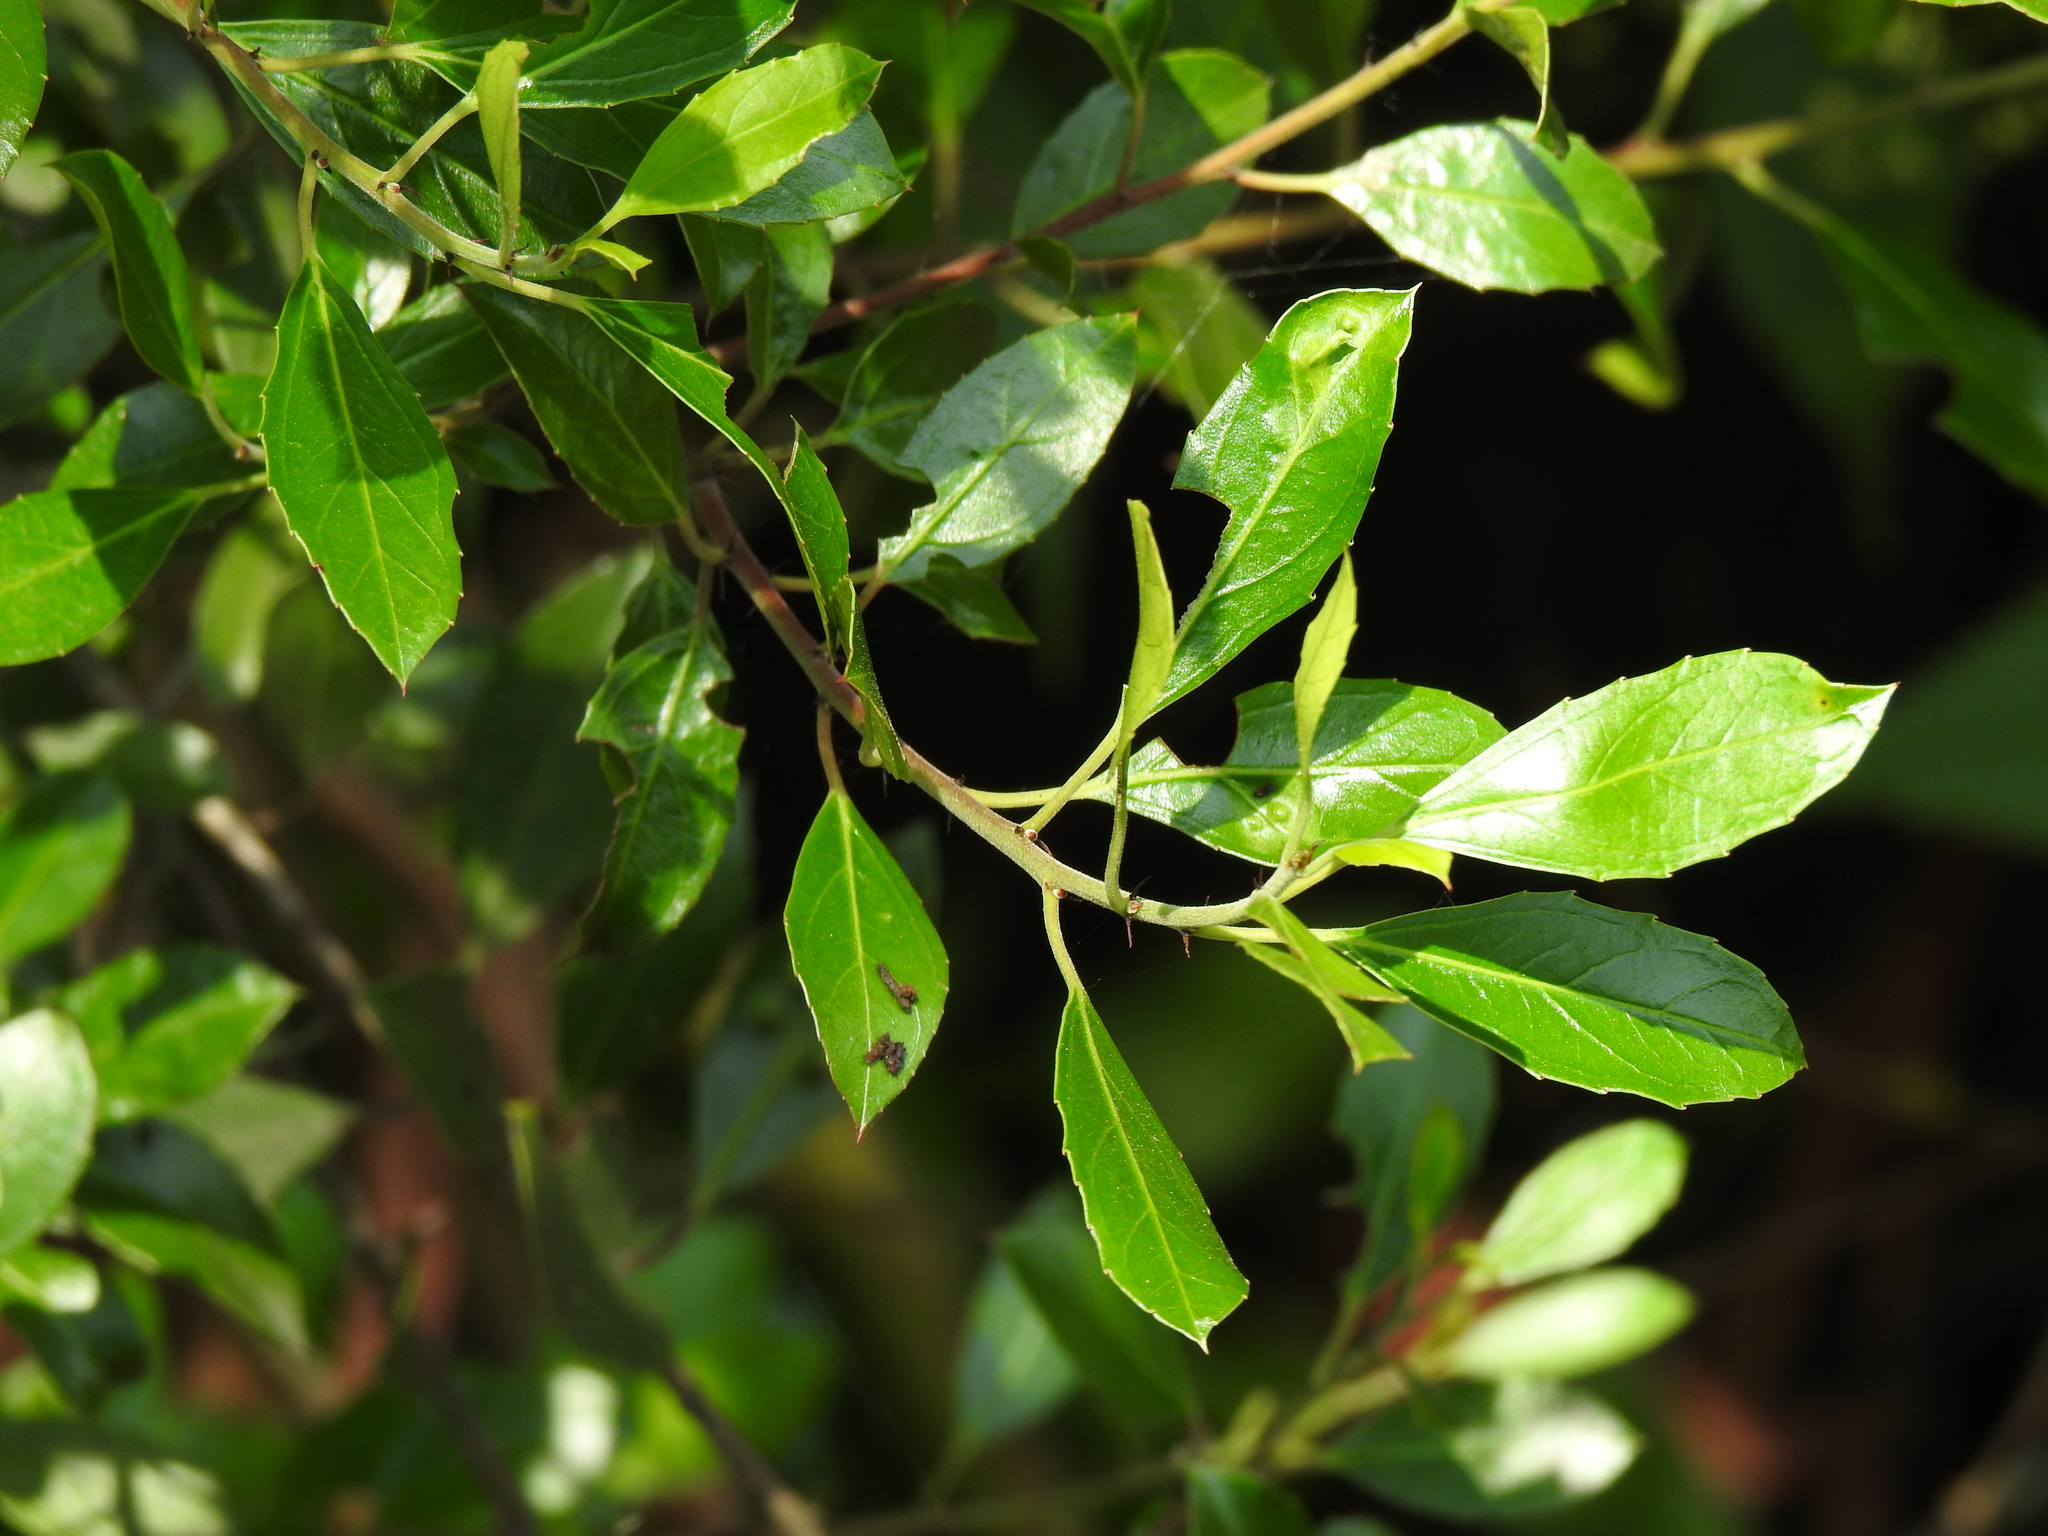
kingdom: Plantae
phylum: Tracheophyta
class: Magnoliopsida
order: Rosales
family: Rhamnaceae
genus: Rhamnus
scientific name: Rhamnus alaternus
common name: Mediterranean buckthorn
